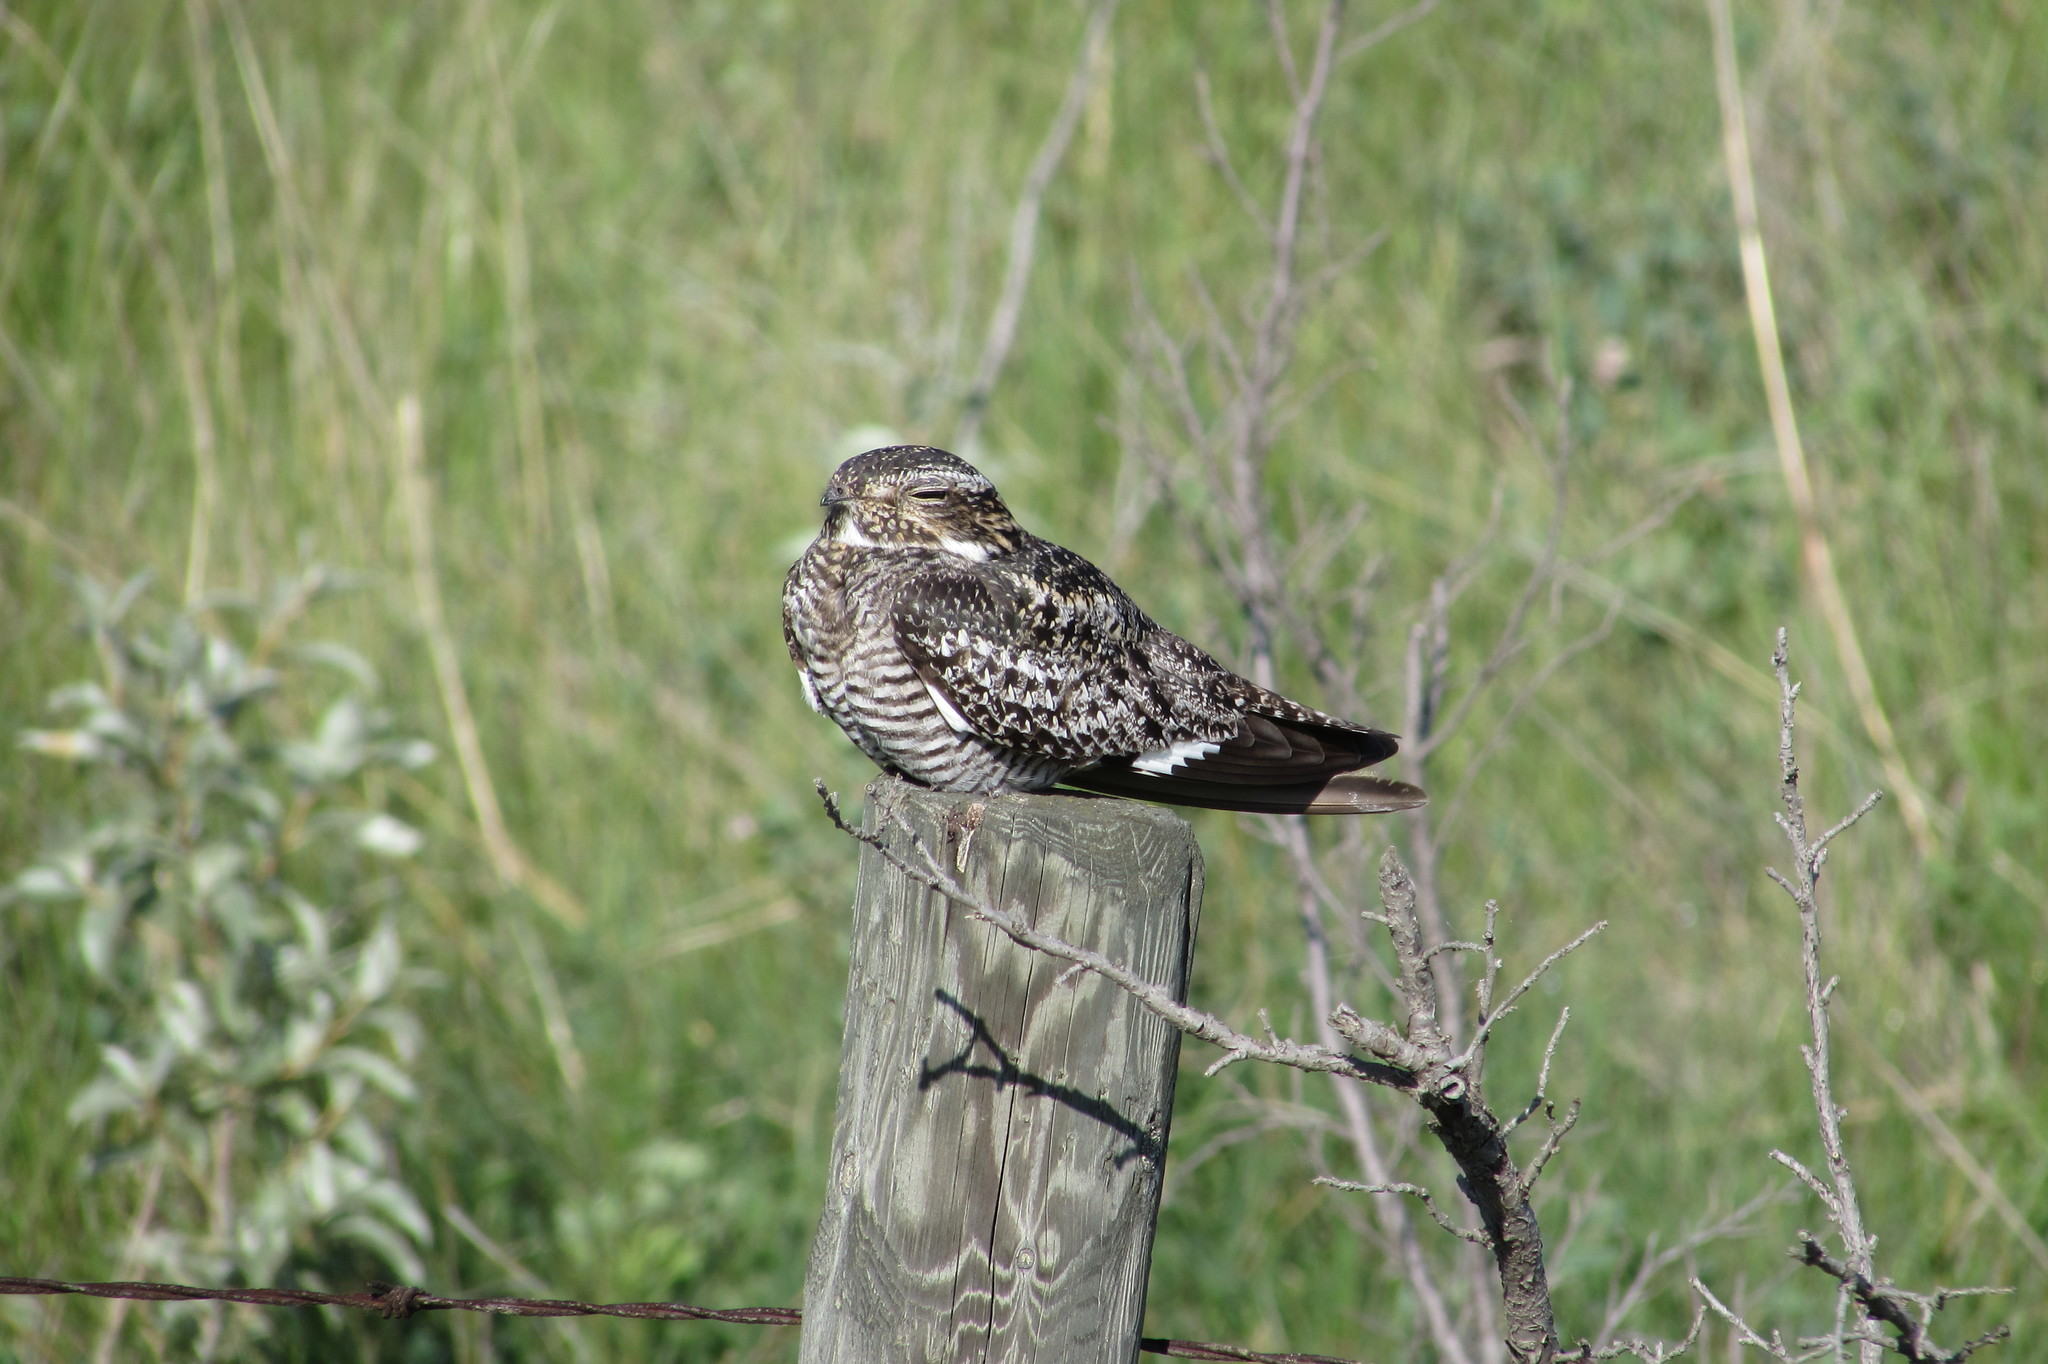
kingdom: Animalia
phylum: Chordata
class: Aves
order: Caprimulgiformes
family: Caprimulgidae
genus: Chordeiles
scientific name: Chordeiles minor
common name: Common nighthawk
